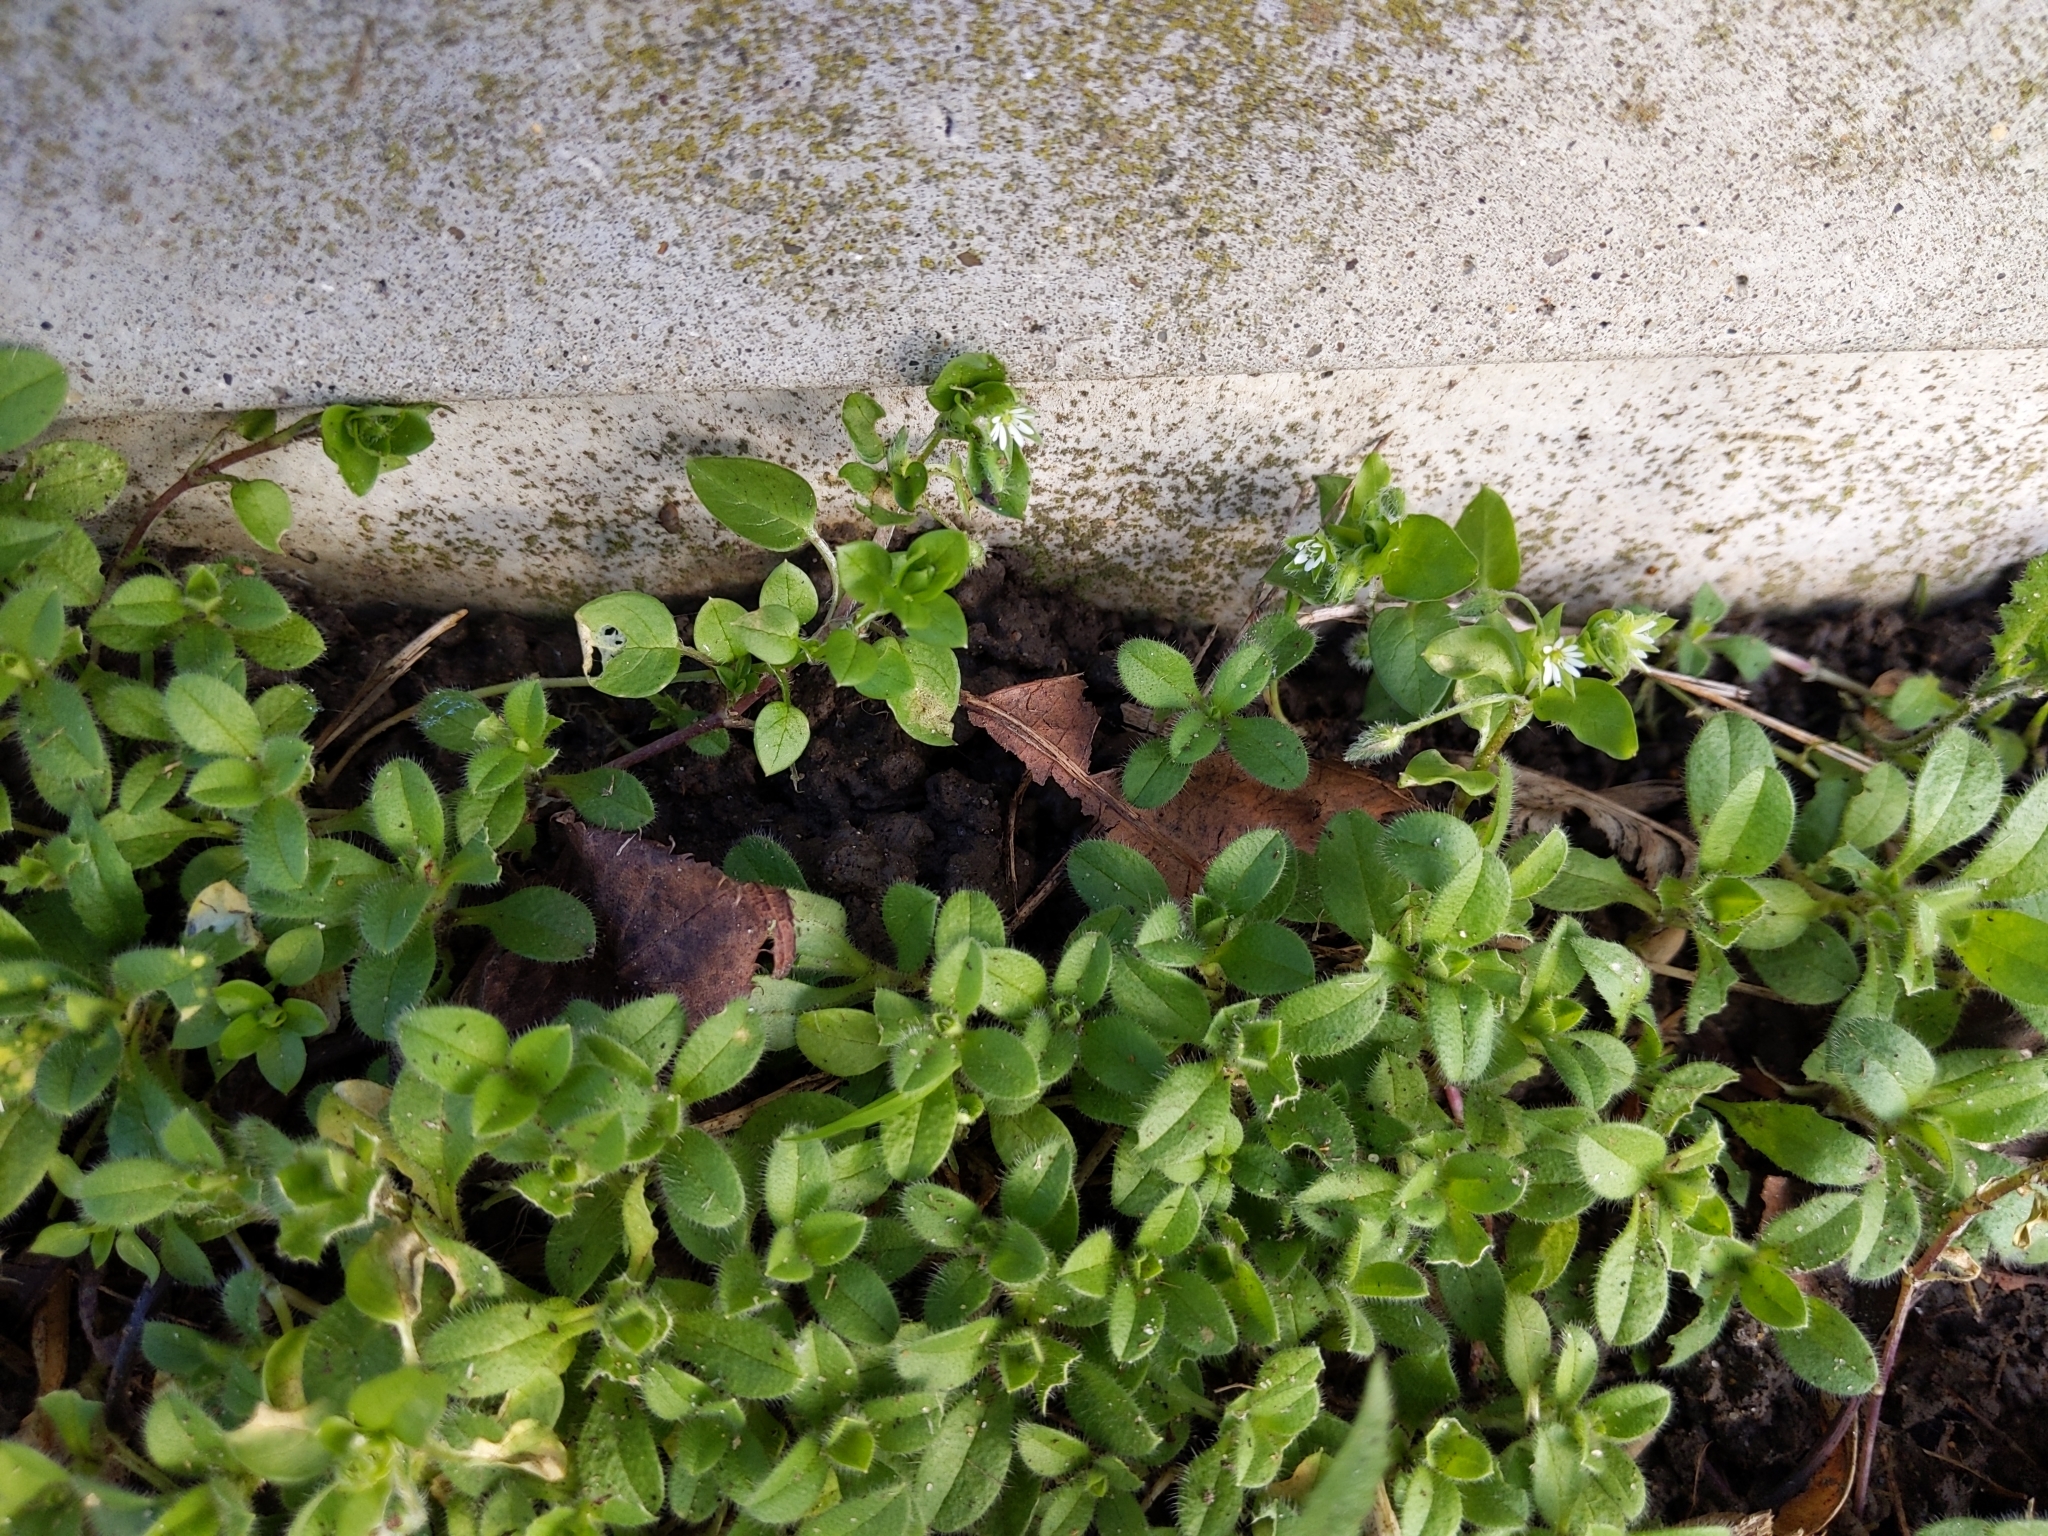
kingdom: Plantae
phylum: Tracheophyta
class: Magnoliopsida
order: Caryophyllales
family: Caryophyllaceae
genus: Stellaria
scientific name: Stellaria media
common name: Common chickweed
